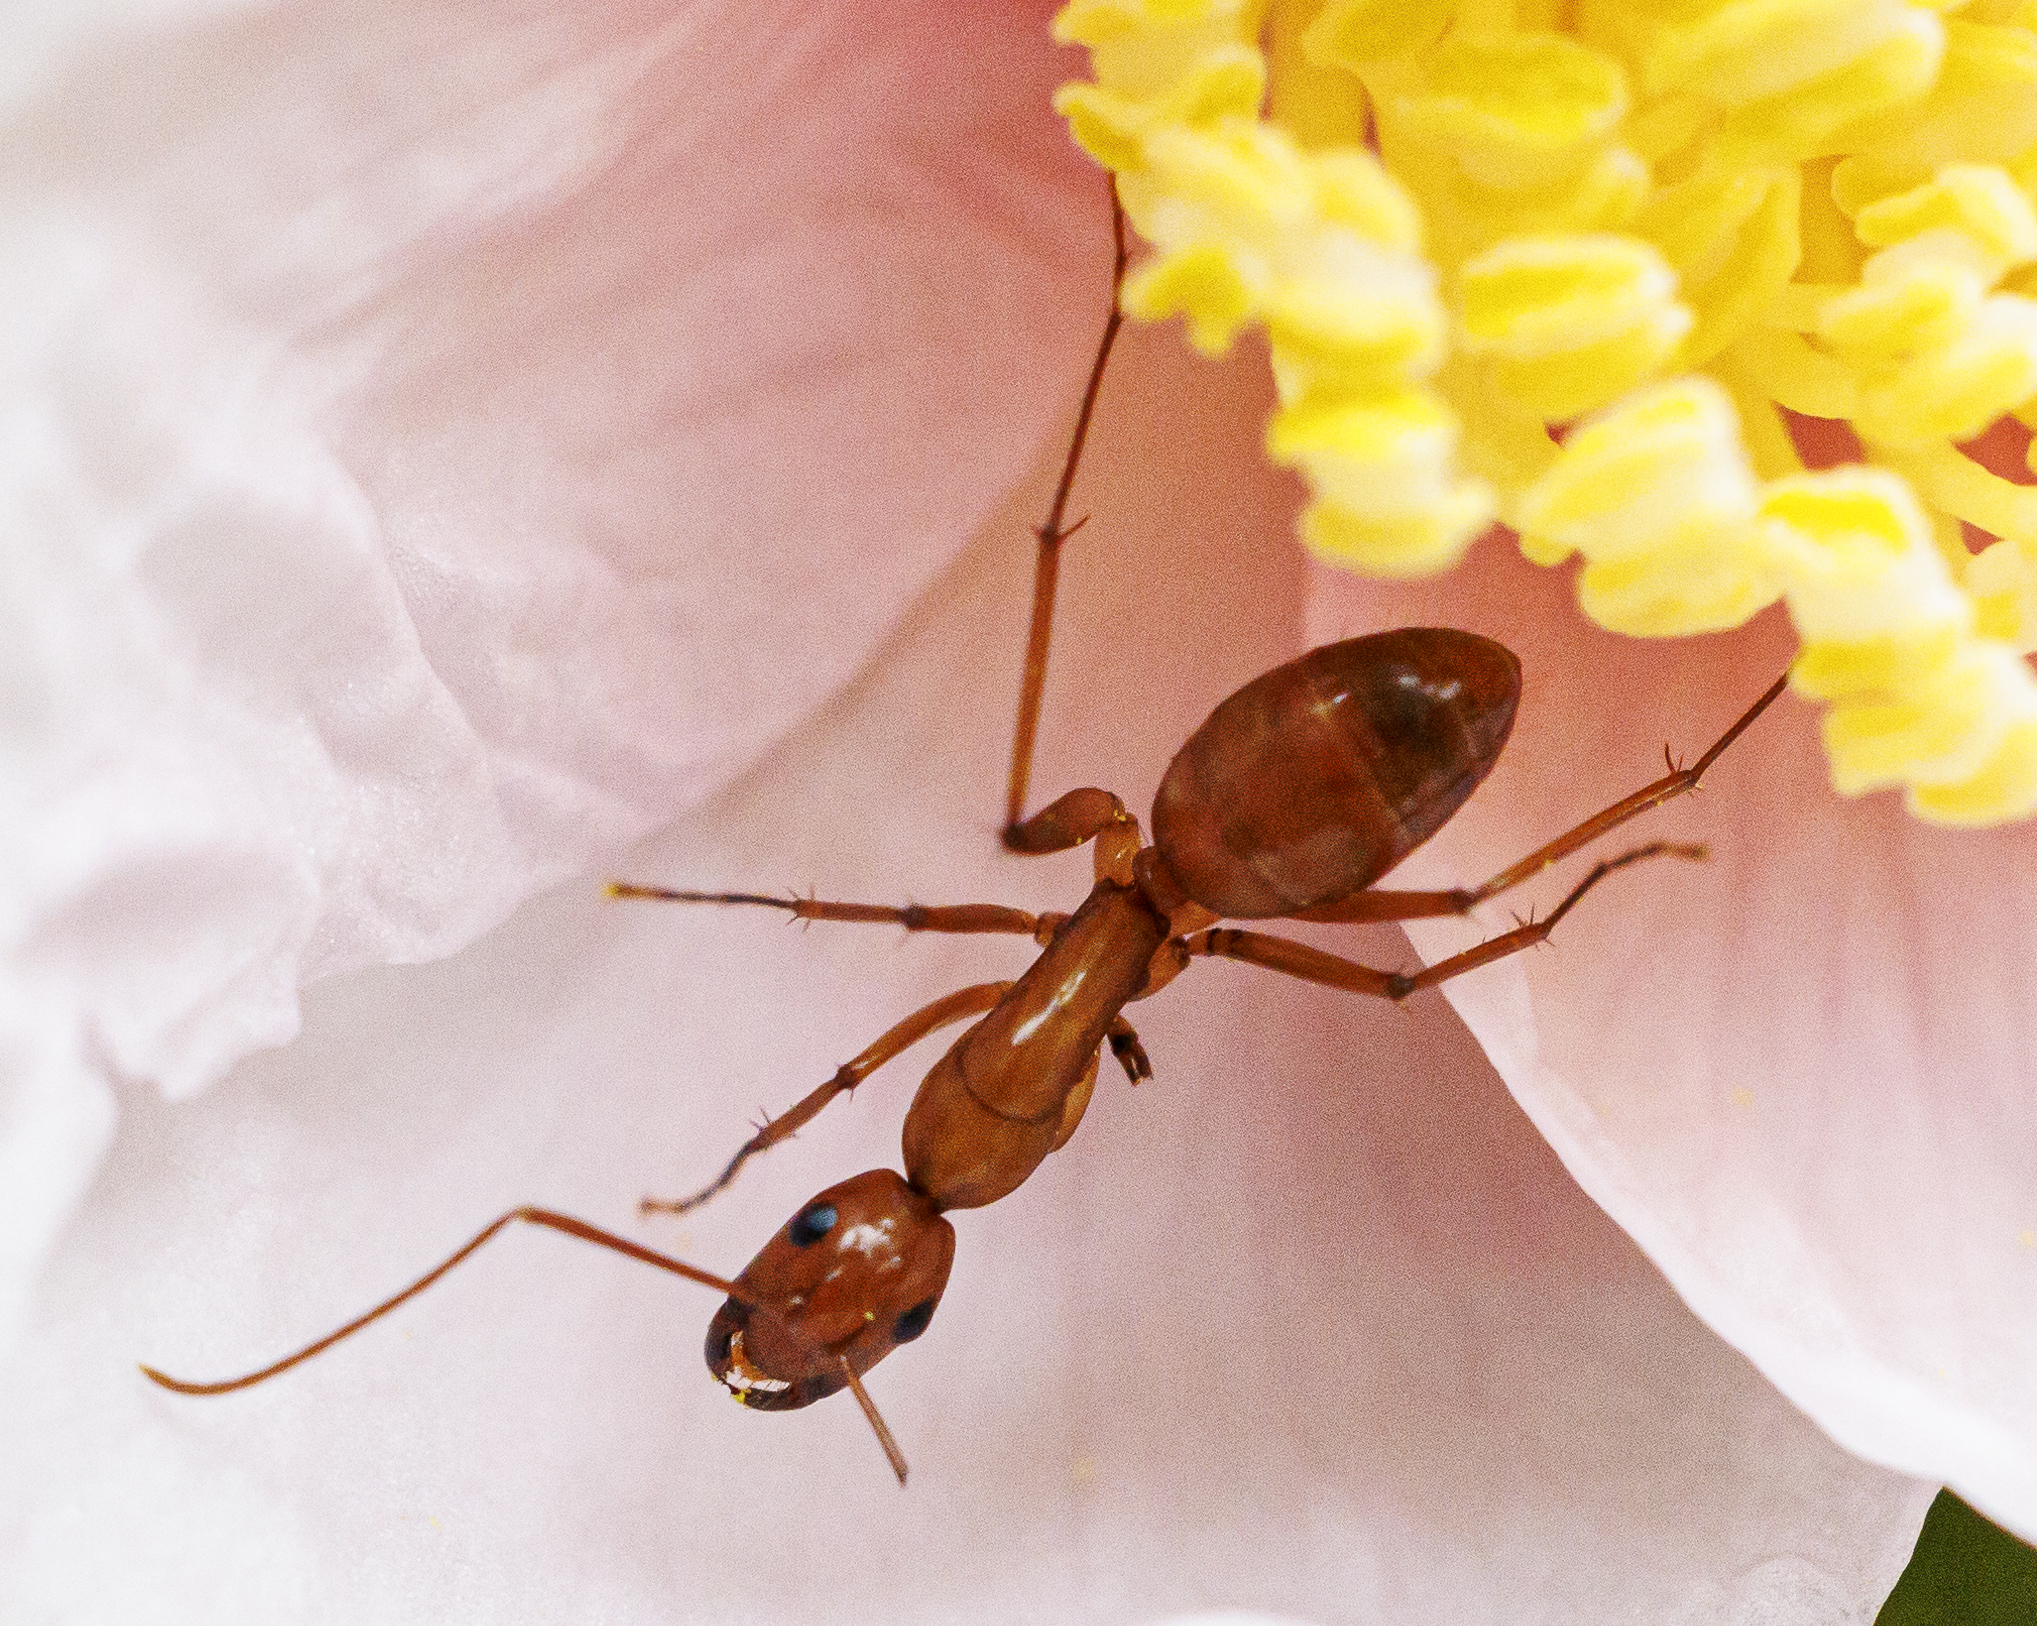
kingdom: Animalia
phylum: Arthropoda
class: Insecta
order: Hymenoptera
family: Formicidae
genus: Camponotus
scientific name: Camponotus castaneus
